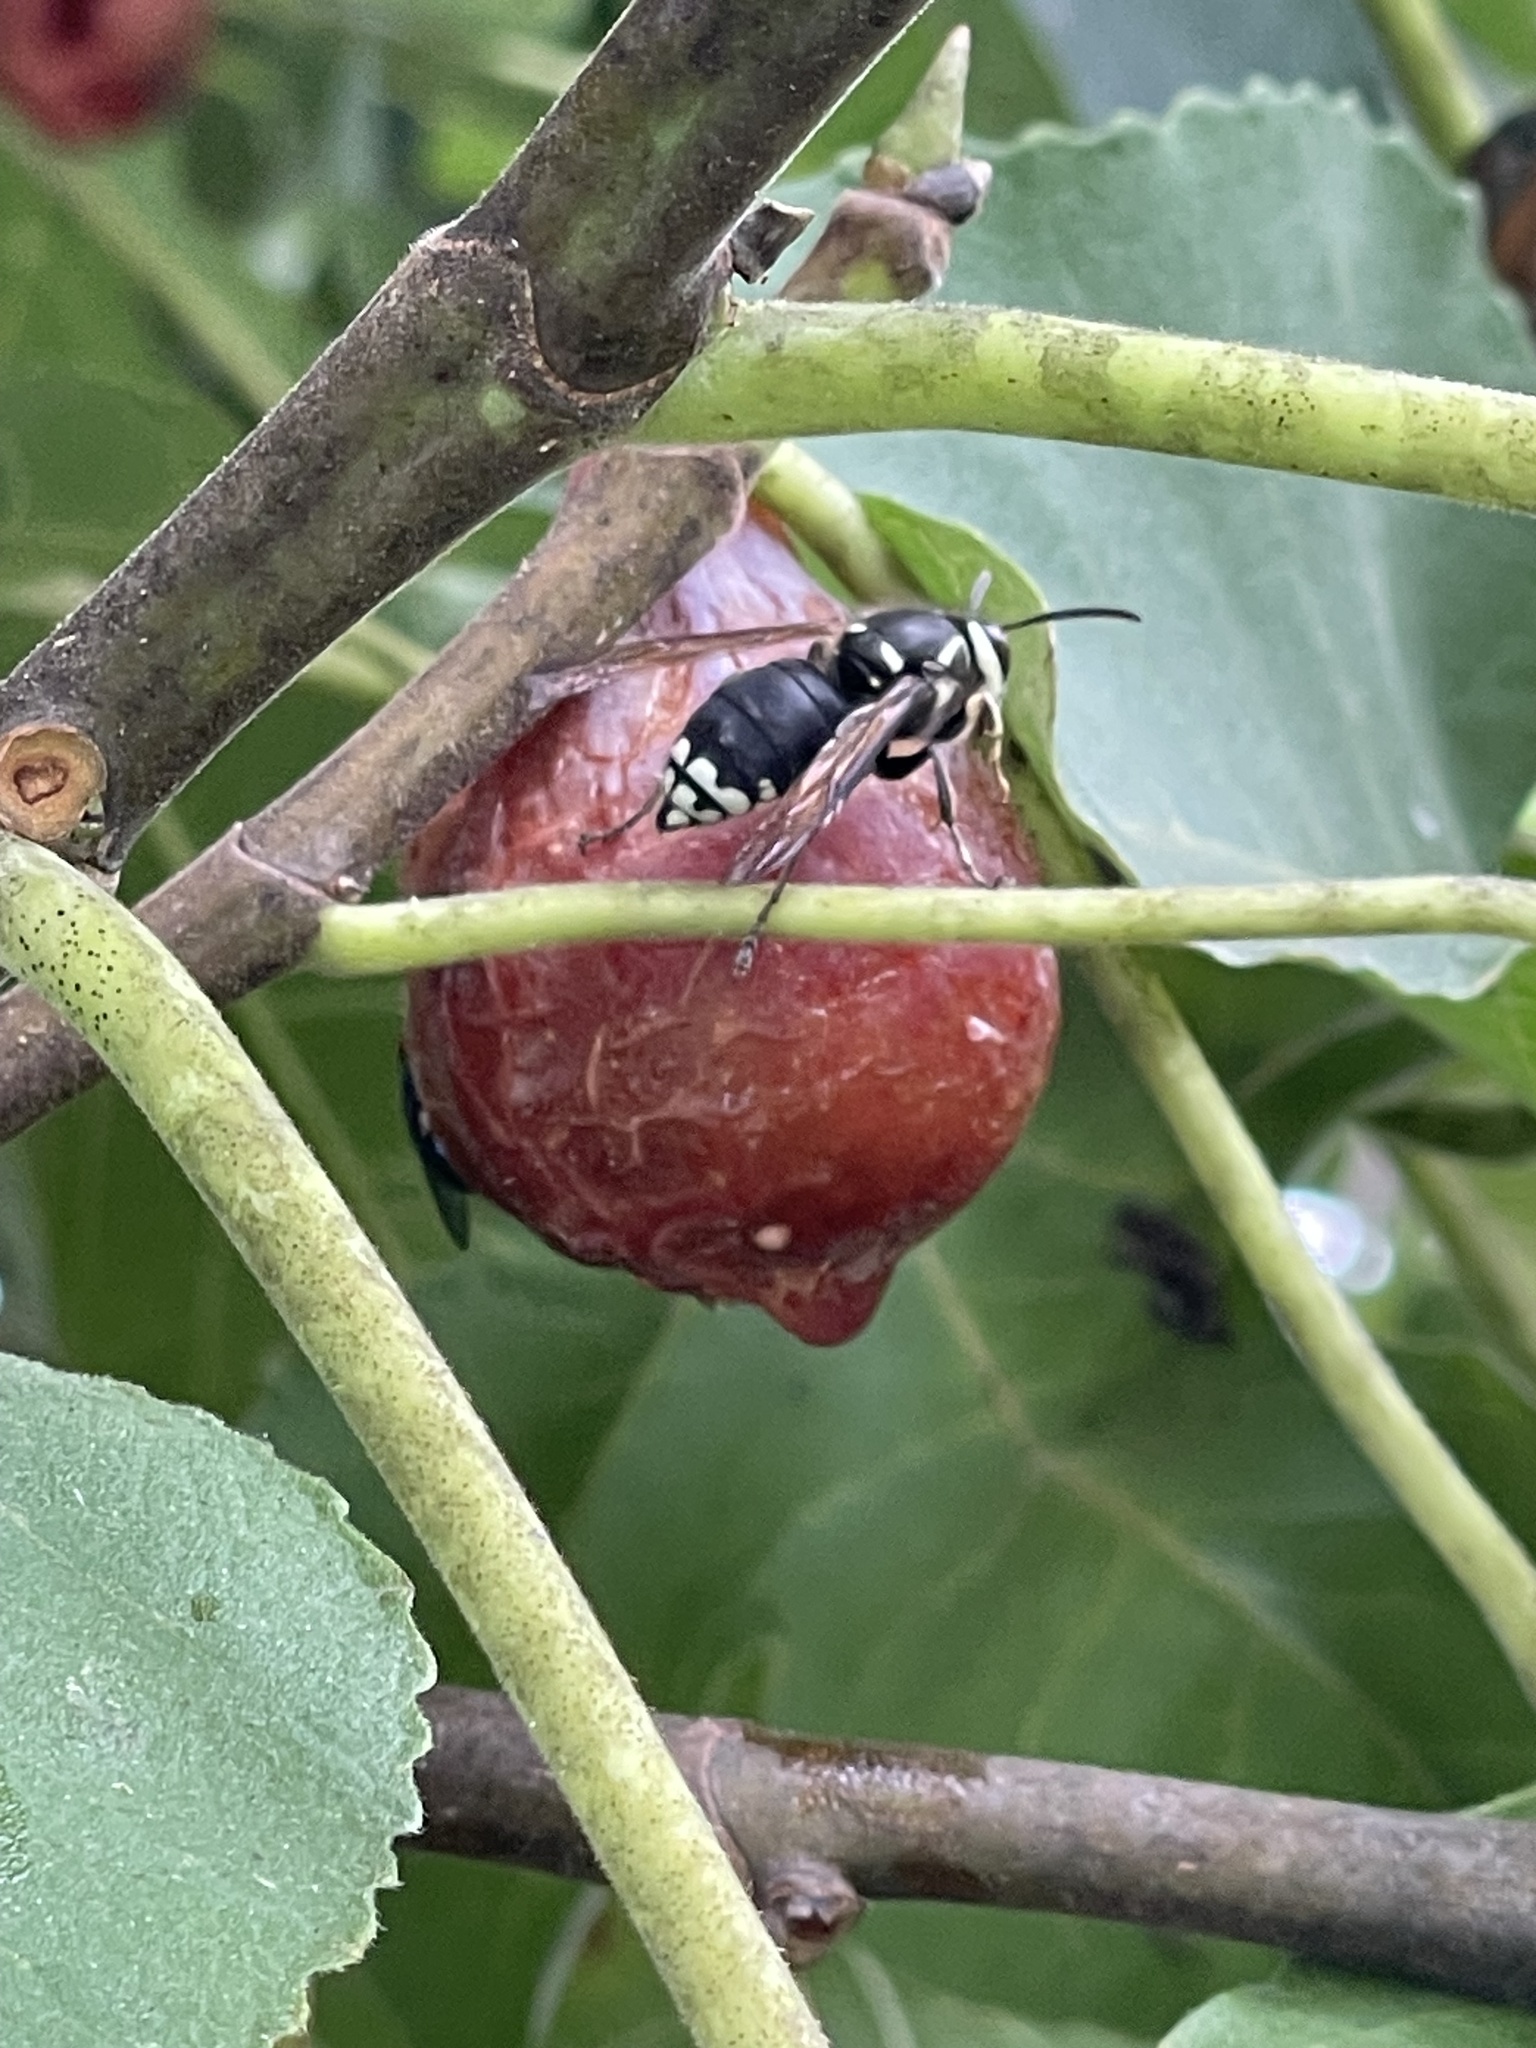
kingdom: Animalia
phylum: Arthropoda
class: Insecta
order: Hymenoptera
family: Vespidae
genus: Dolichovespula
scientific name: Dolichovespula maculata
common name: Bald-faced hornet
